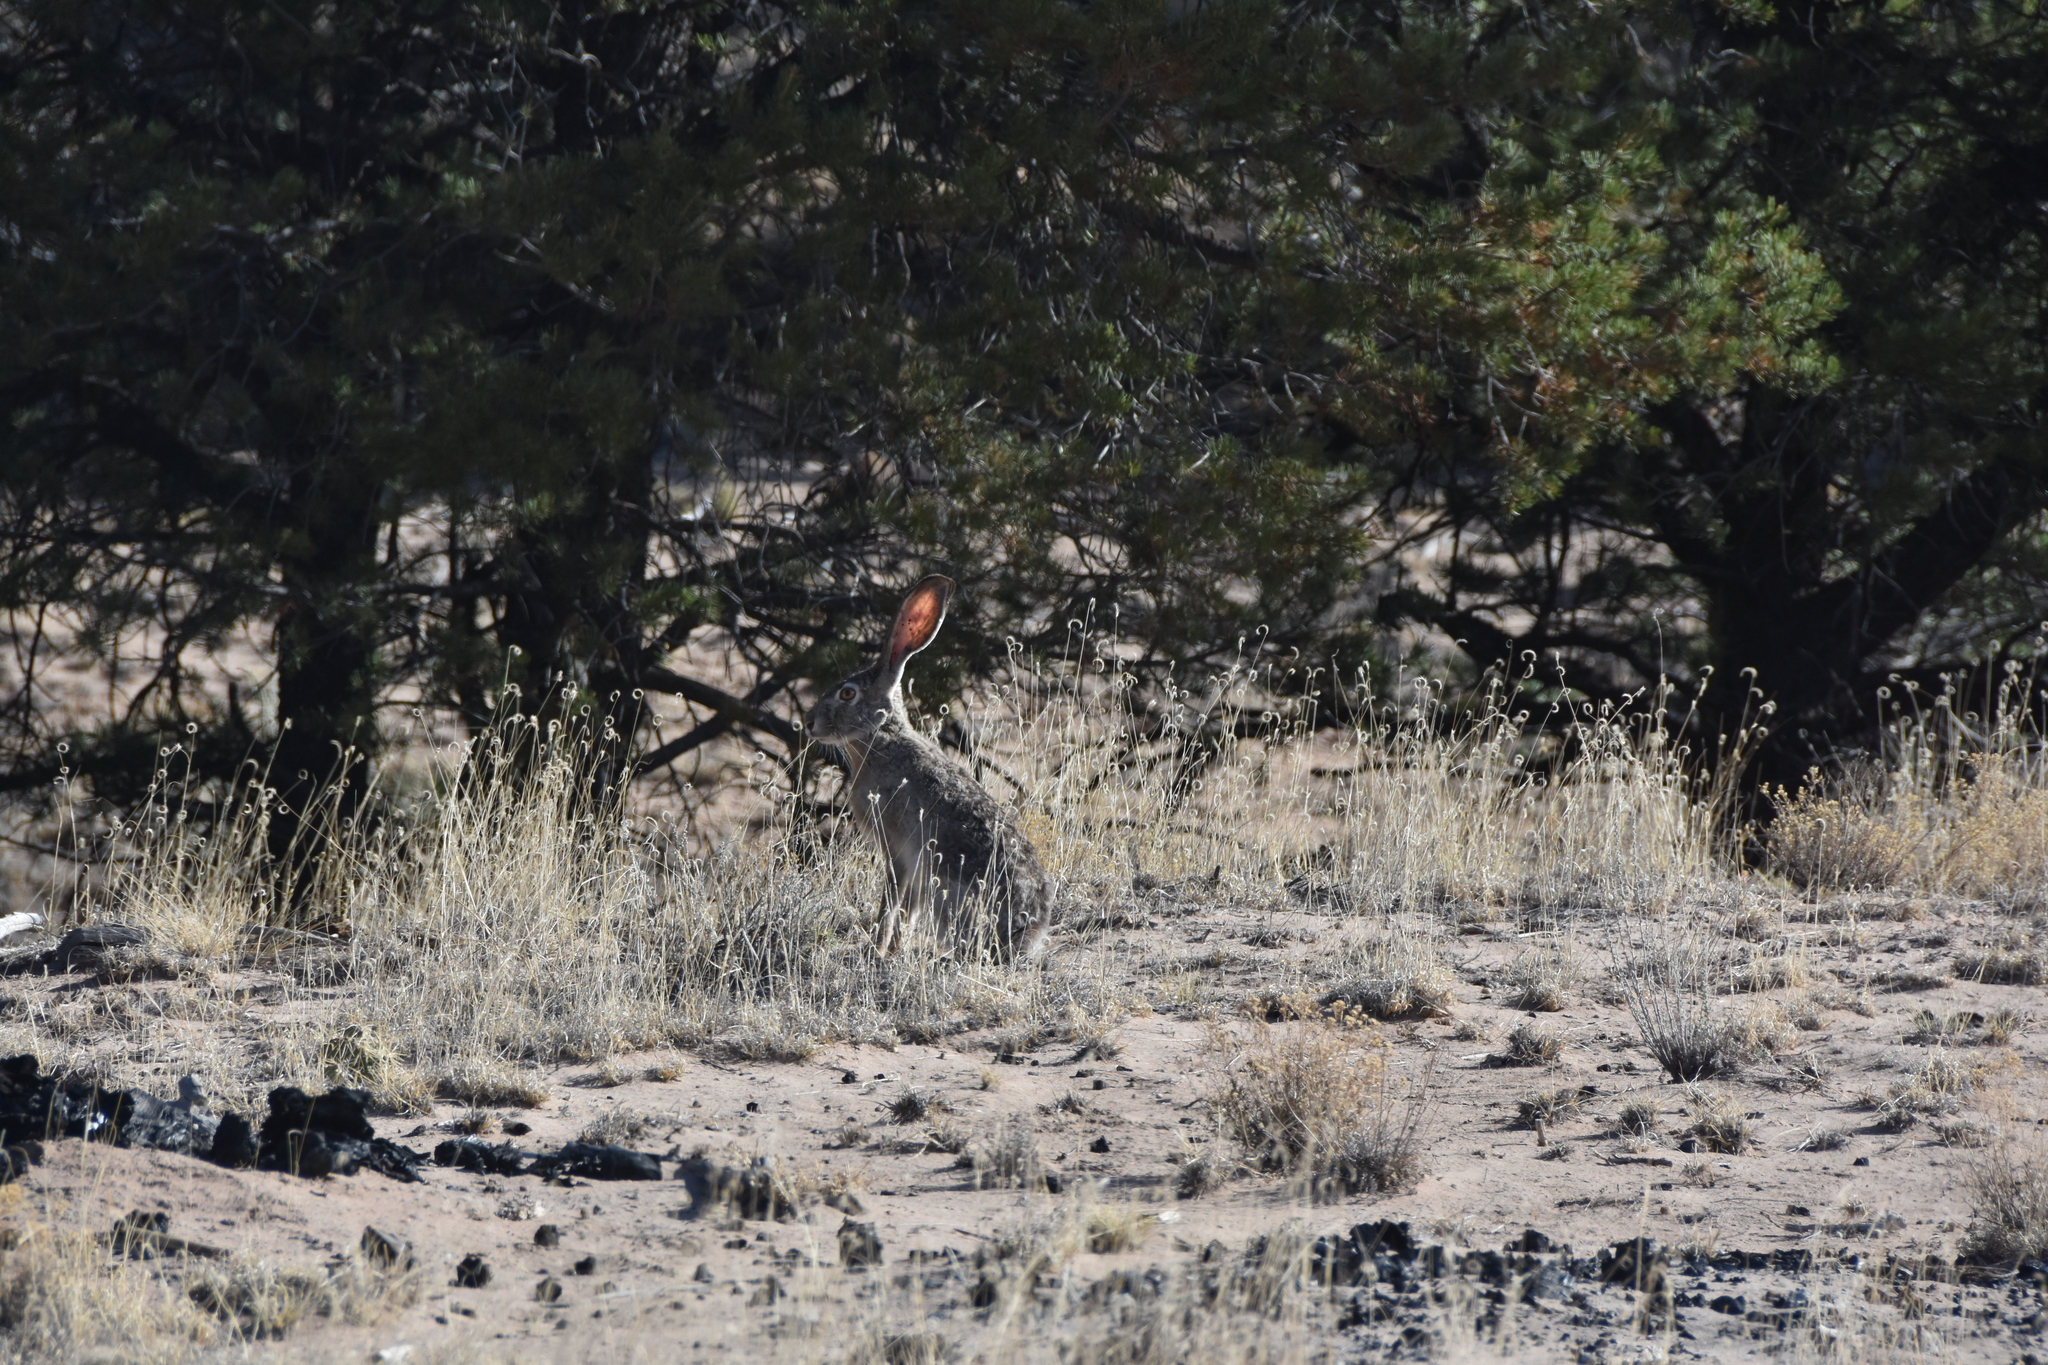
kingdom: Animalia
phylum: Chordata
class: Mammalia
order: Lagomorpha
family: Leporidae
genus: Lepus
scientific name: Lepus californicus
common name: Black-tailed jackrabbit
